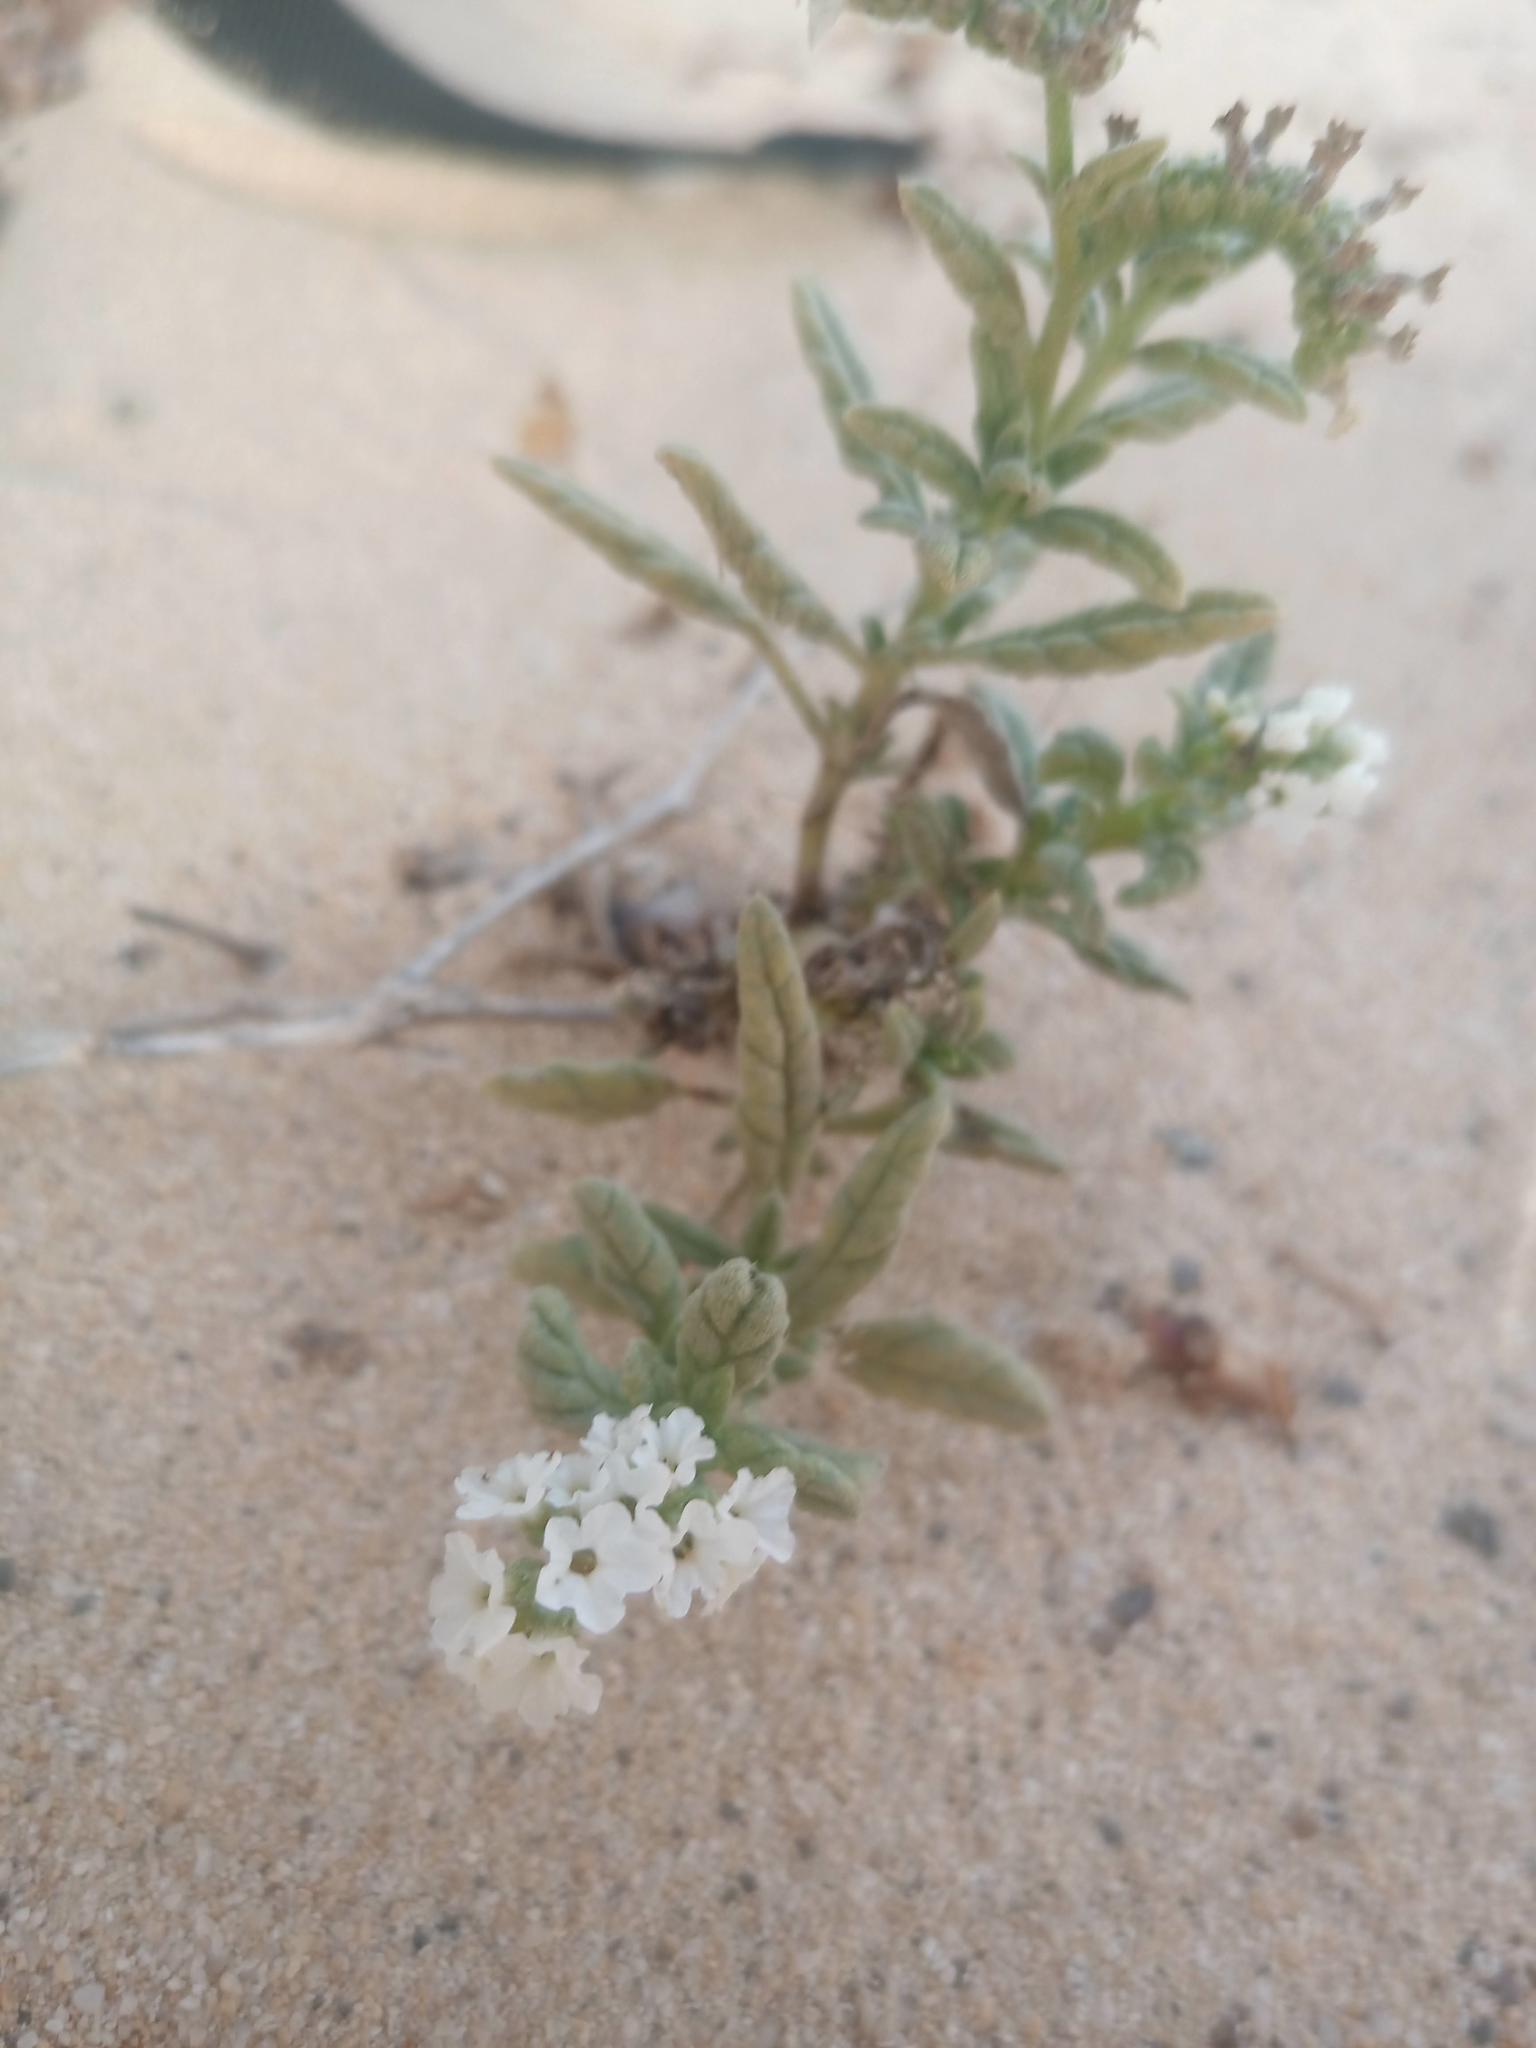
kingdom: Plantae
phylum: Tracheophyta
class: Magnoliopsida
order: Boraginales
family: Heliotropiaceae
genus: Heliotropium
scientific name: Heliotropium ramosissimum
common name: Wavy heliotrope
